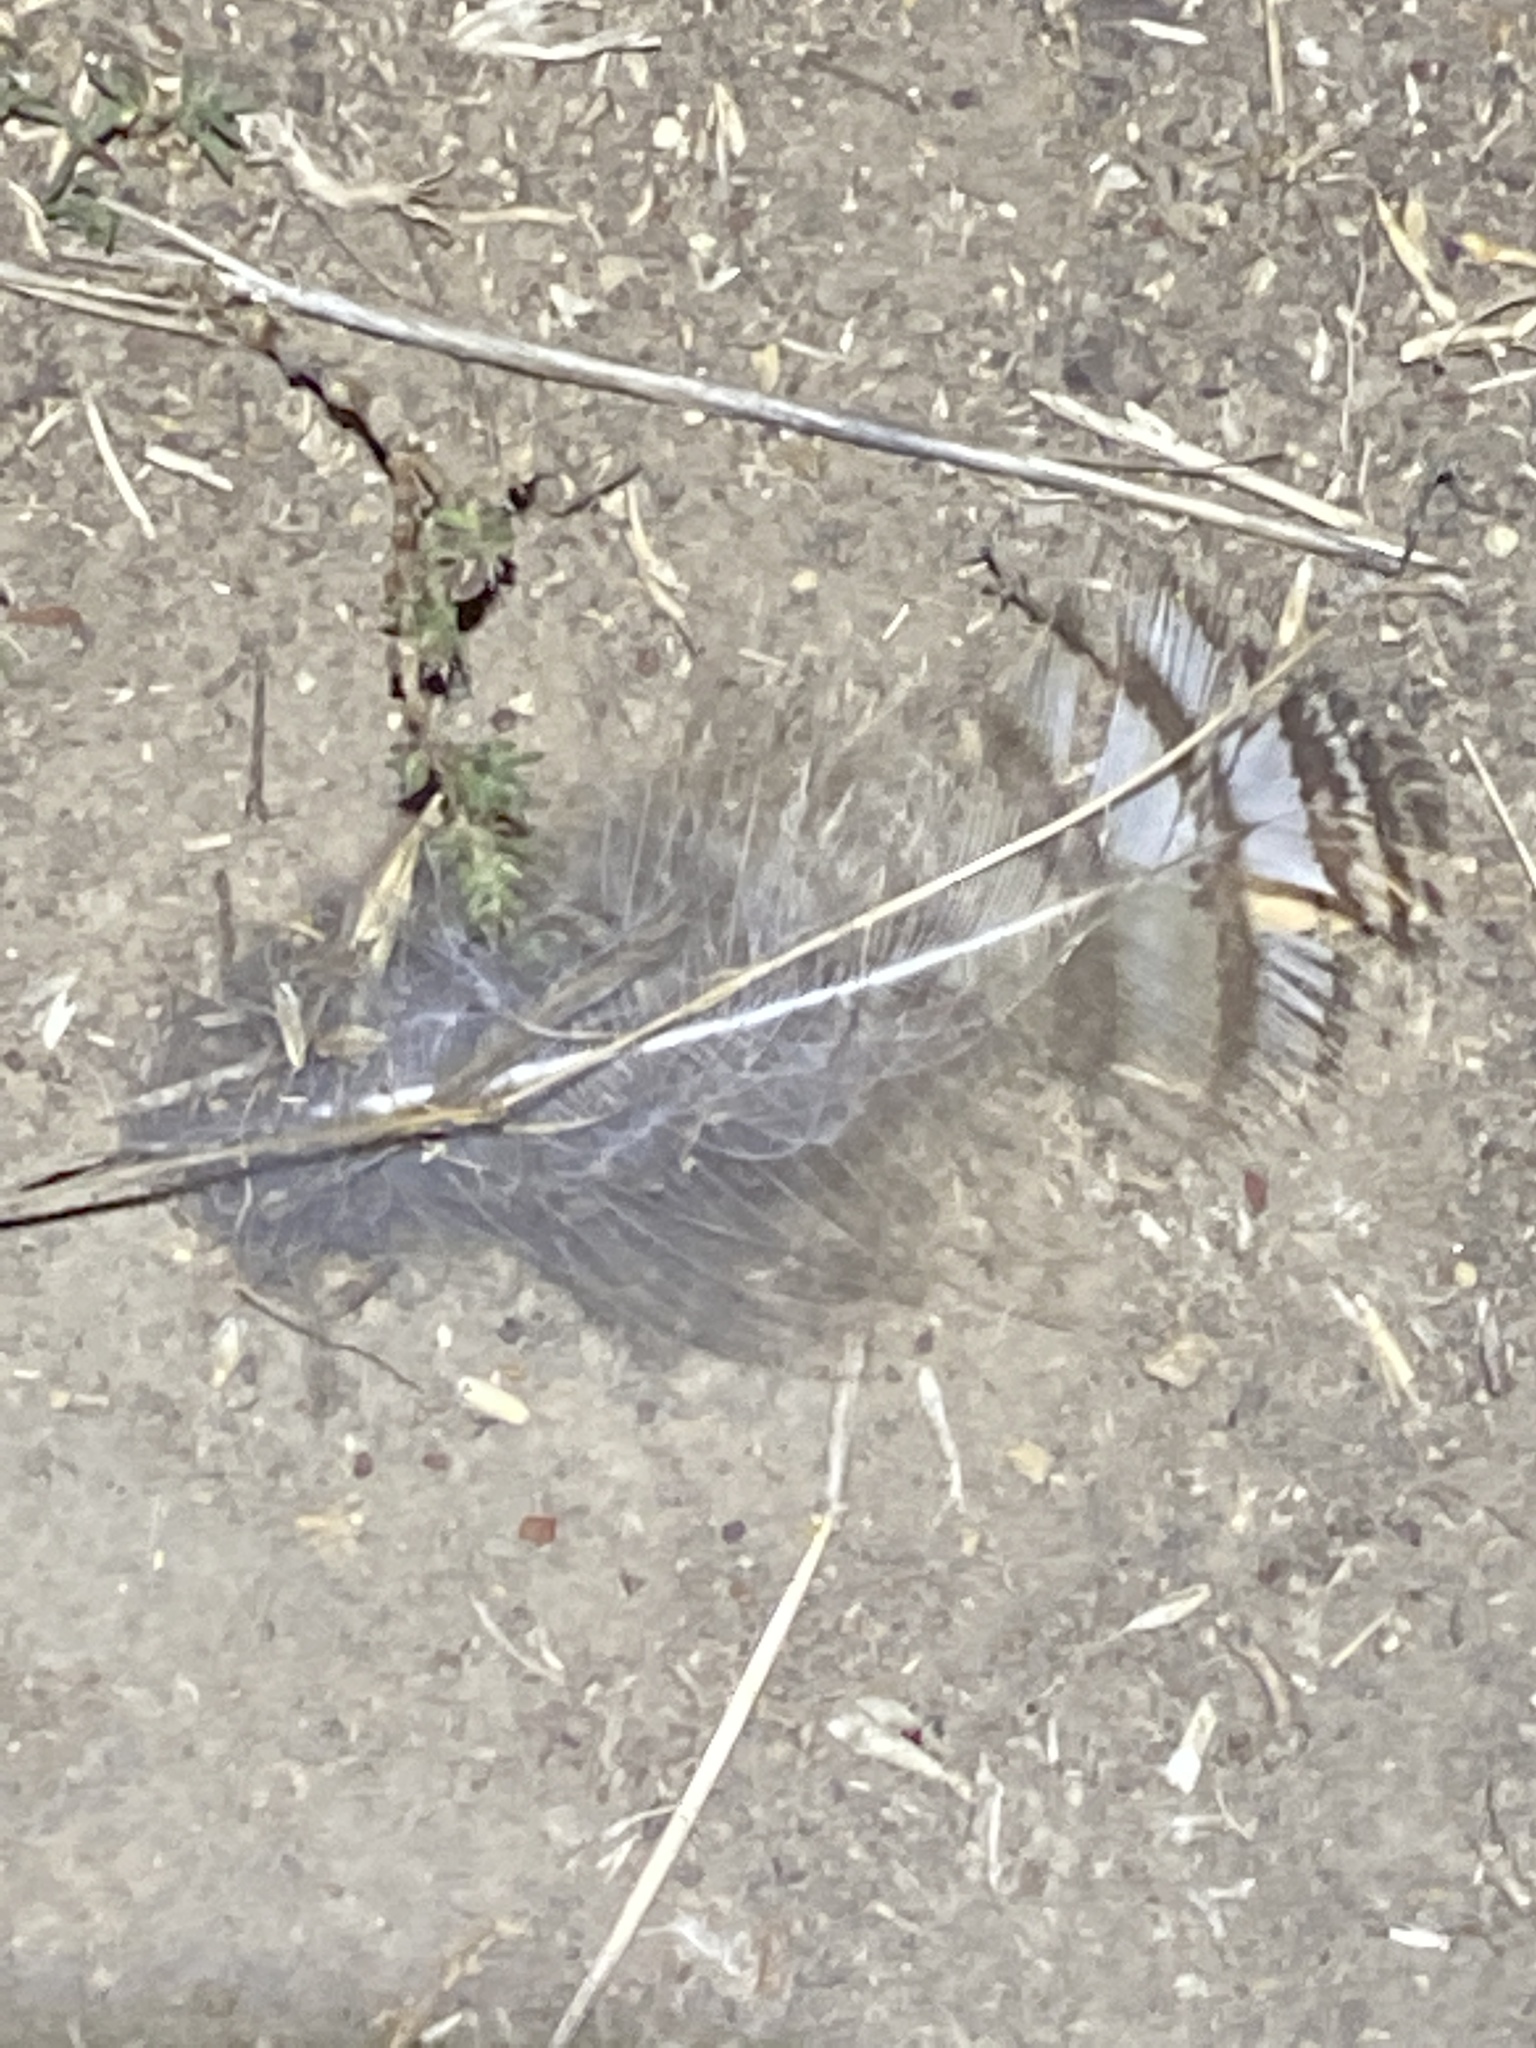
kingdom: Animalia
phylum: Chordata
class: Aves
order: Strigiformes
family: Strigidae
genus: Bubo
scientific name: Bubo virginianus
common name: Great horned owl
